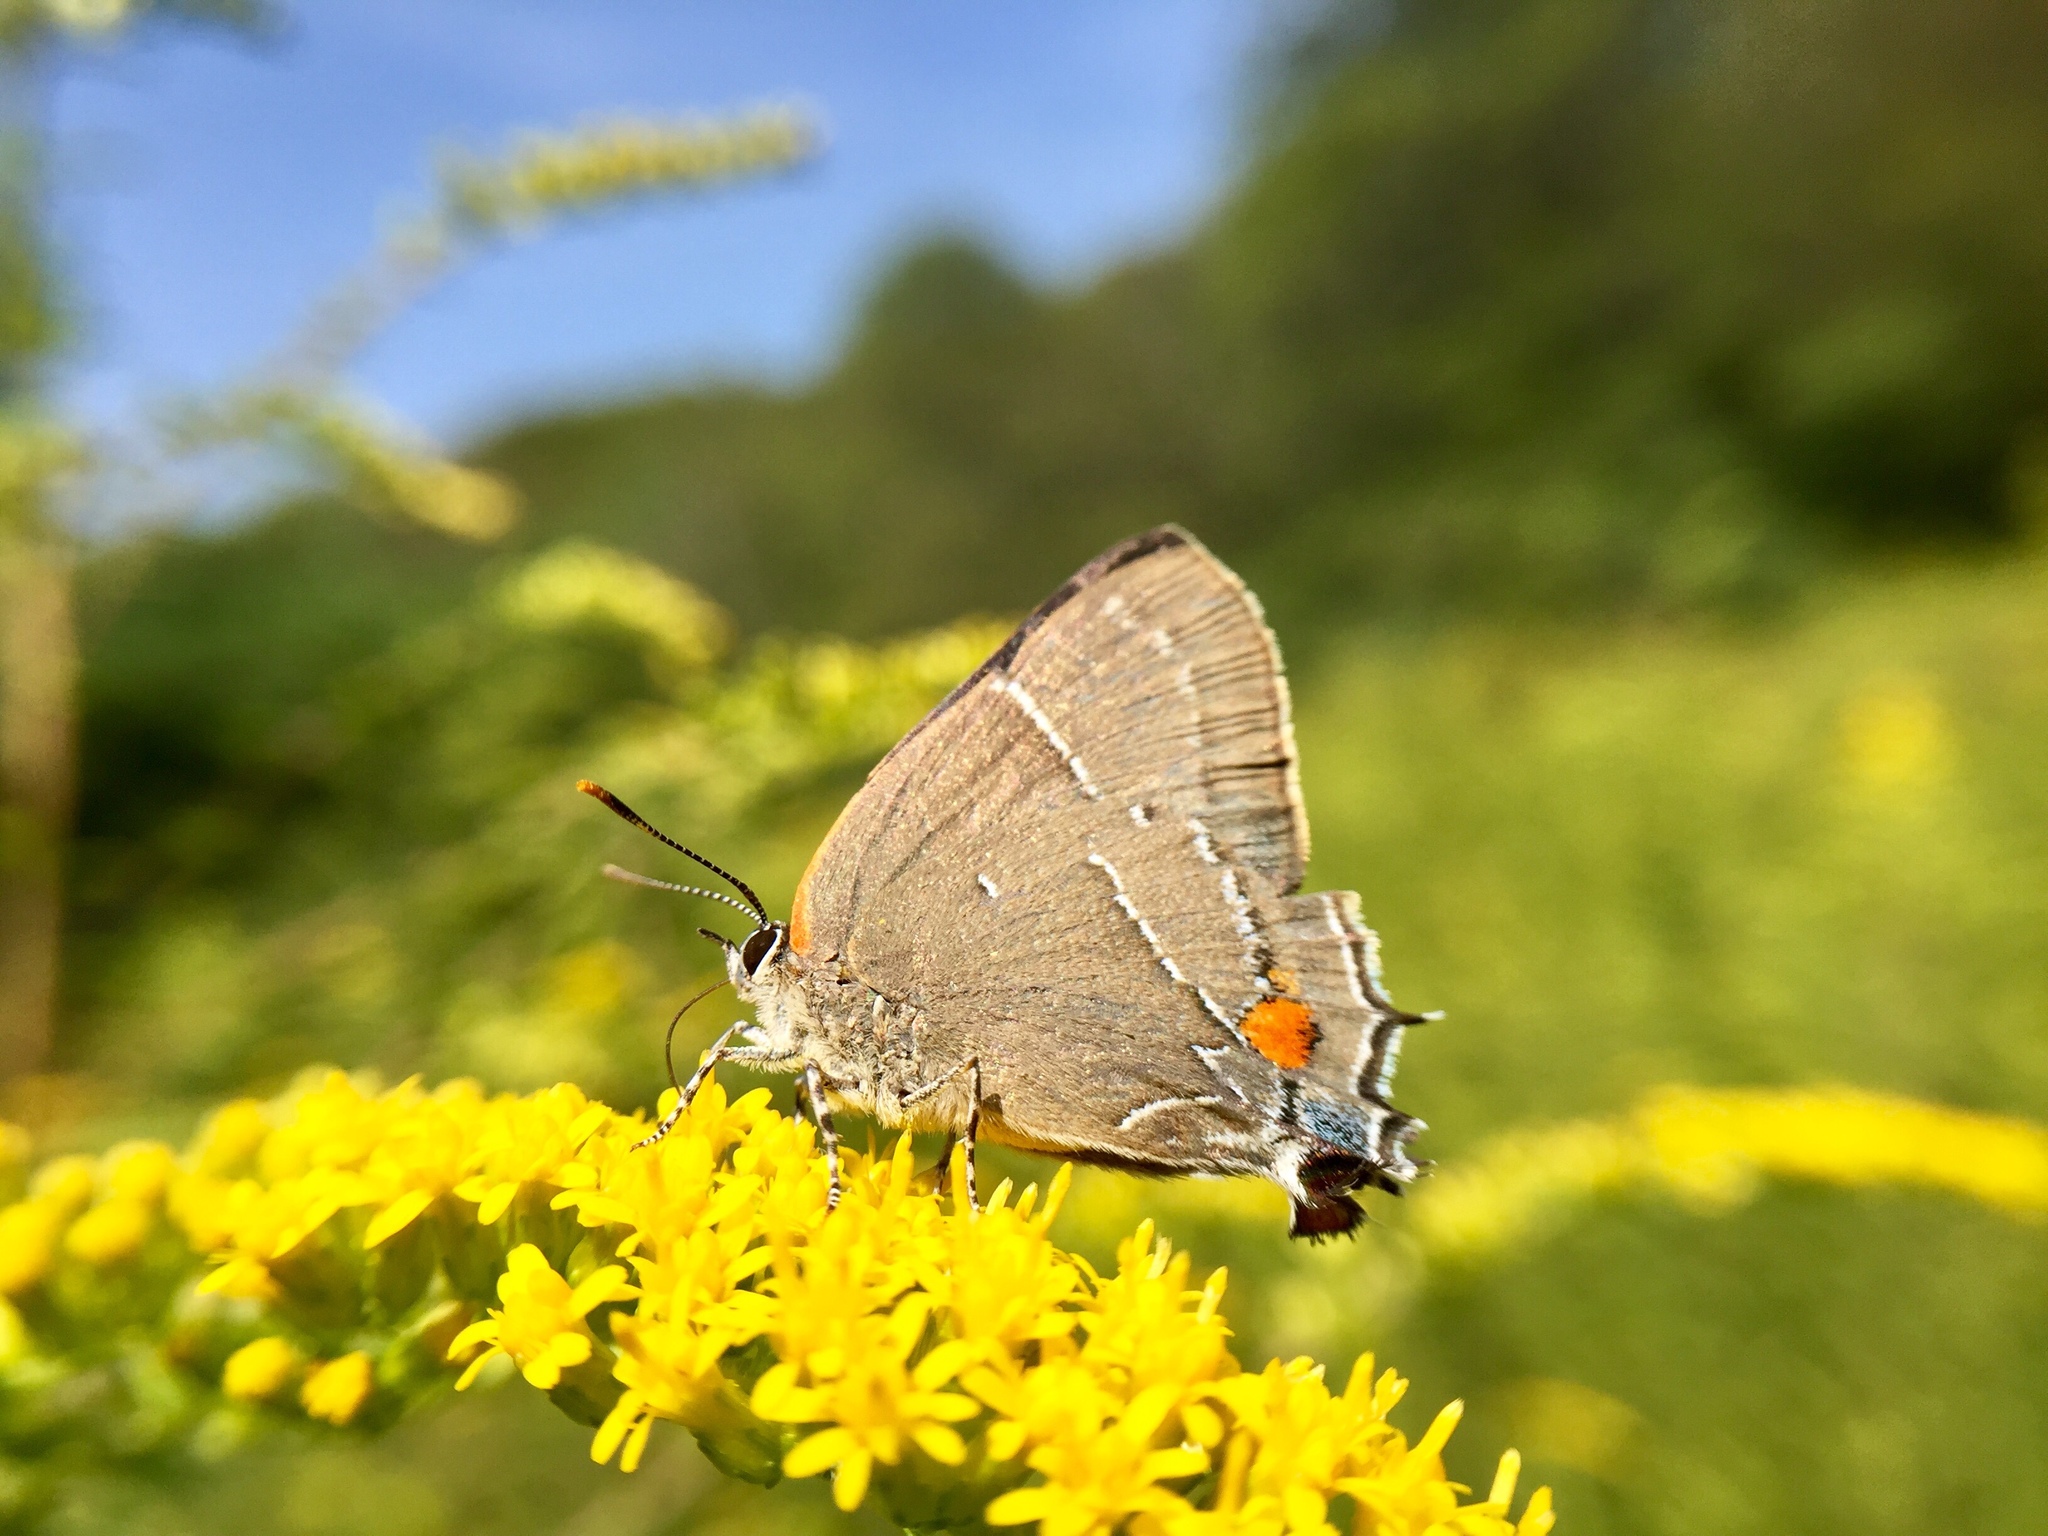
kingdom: Animalia
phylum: Arthropoda
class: Insecta
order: Lepidoptera
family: Lycaenidae
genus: Parrhasius
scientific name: Parrhasius m-album
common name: White m hairstreak
